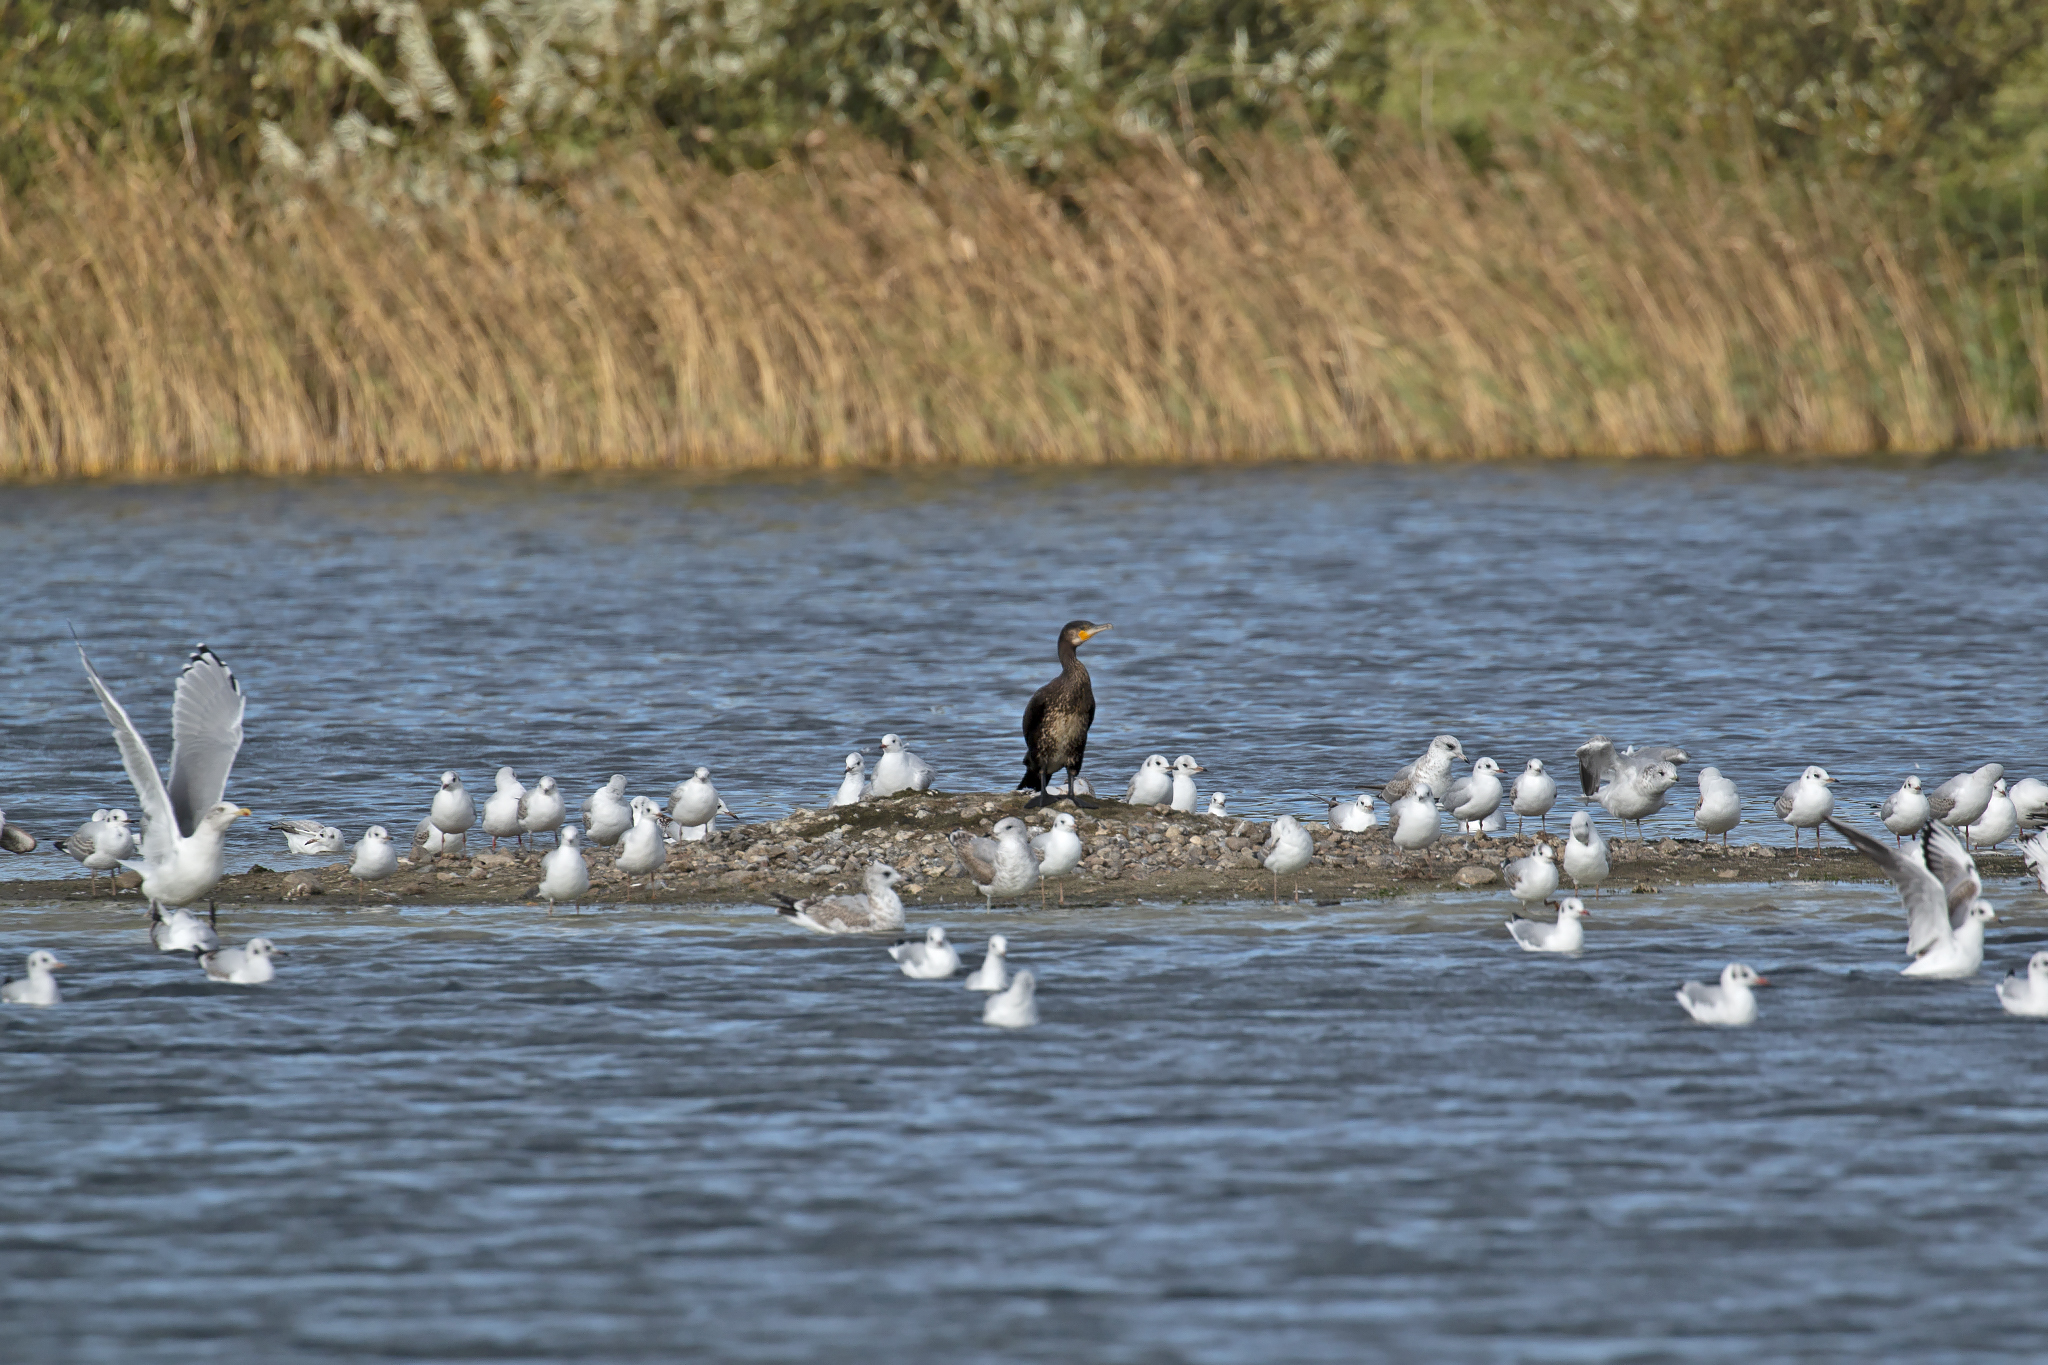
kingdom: Animalia
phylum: Chordata
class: Aves
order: Suliformes
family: Phalacrocoracidae
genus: Phalacrocorax
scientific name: Phalacrocorax carbo
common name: Great cormorant
